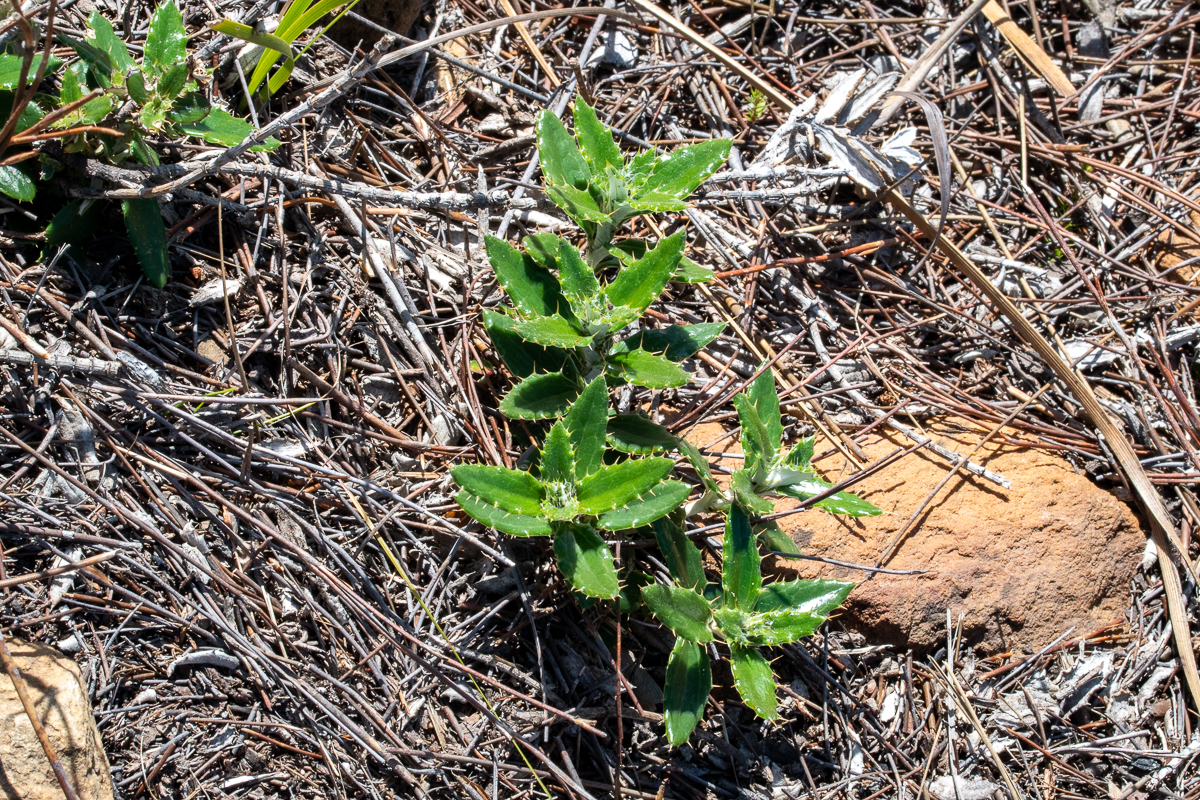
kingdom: Plantae
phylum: Tracheophyta
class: Magnoliopsida
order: Asterales
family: Asteraceae
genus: Berkheya
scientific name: Berkheya barbata
